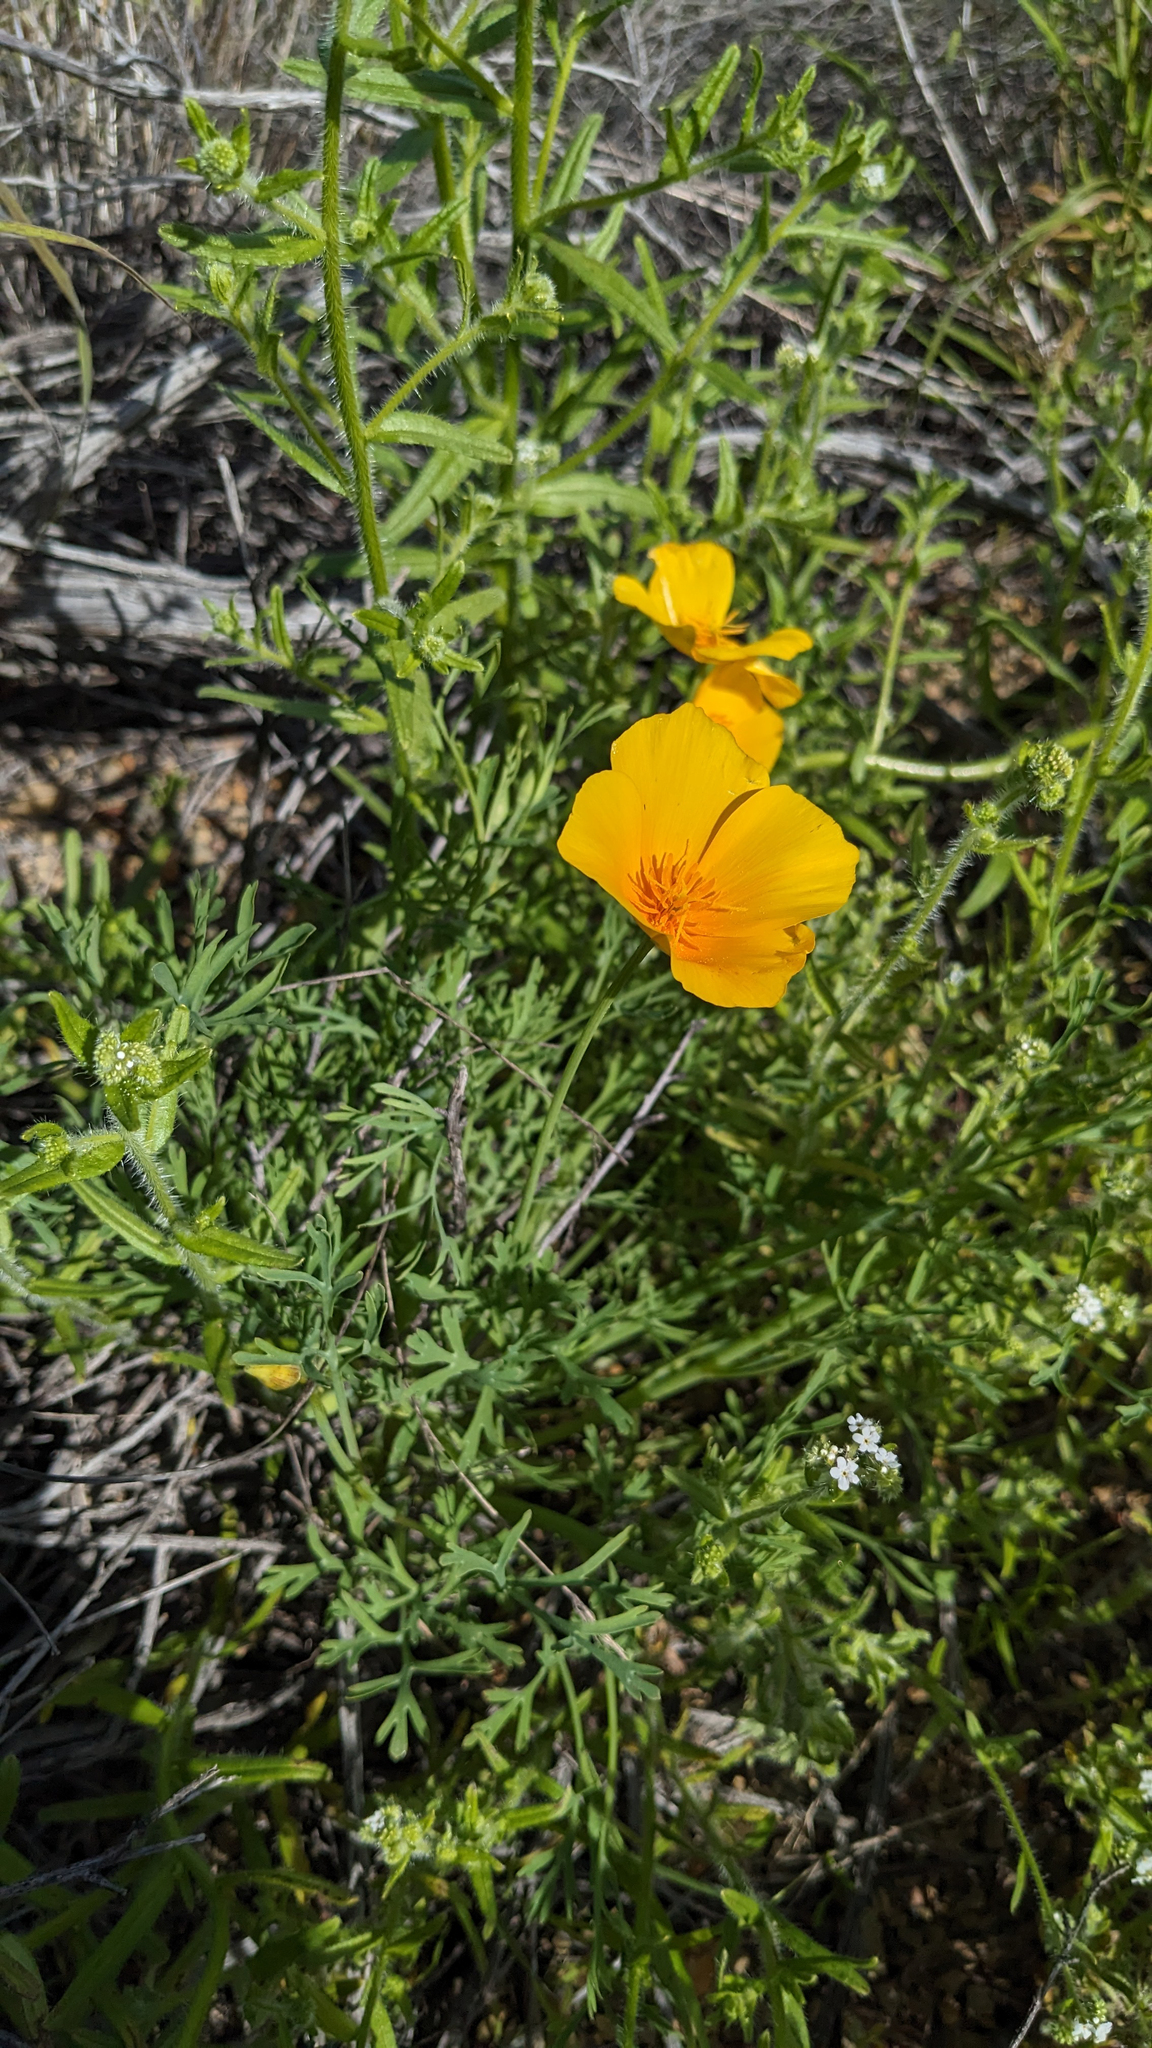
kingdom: Plantae
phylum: Tracheophyta
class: Magnoliopsida
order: Ranunculales
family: Papaveraceae
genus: Eschscholzia
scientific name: Eschscholzia californica
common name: California poppy
